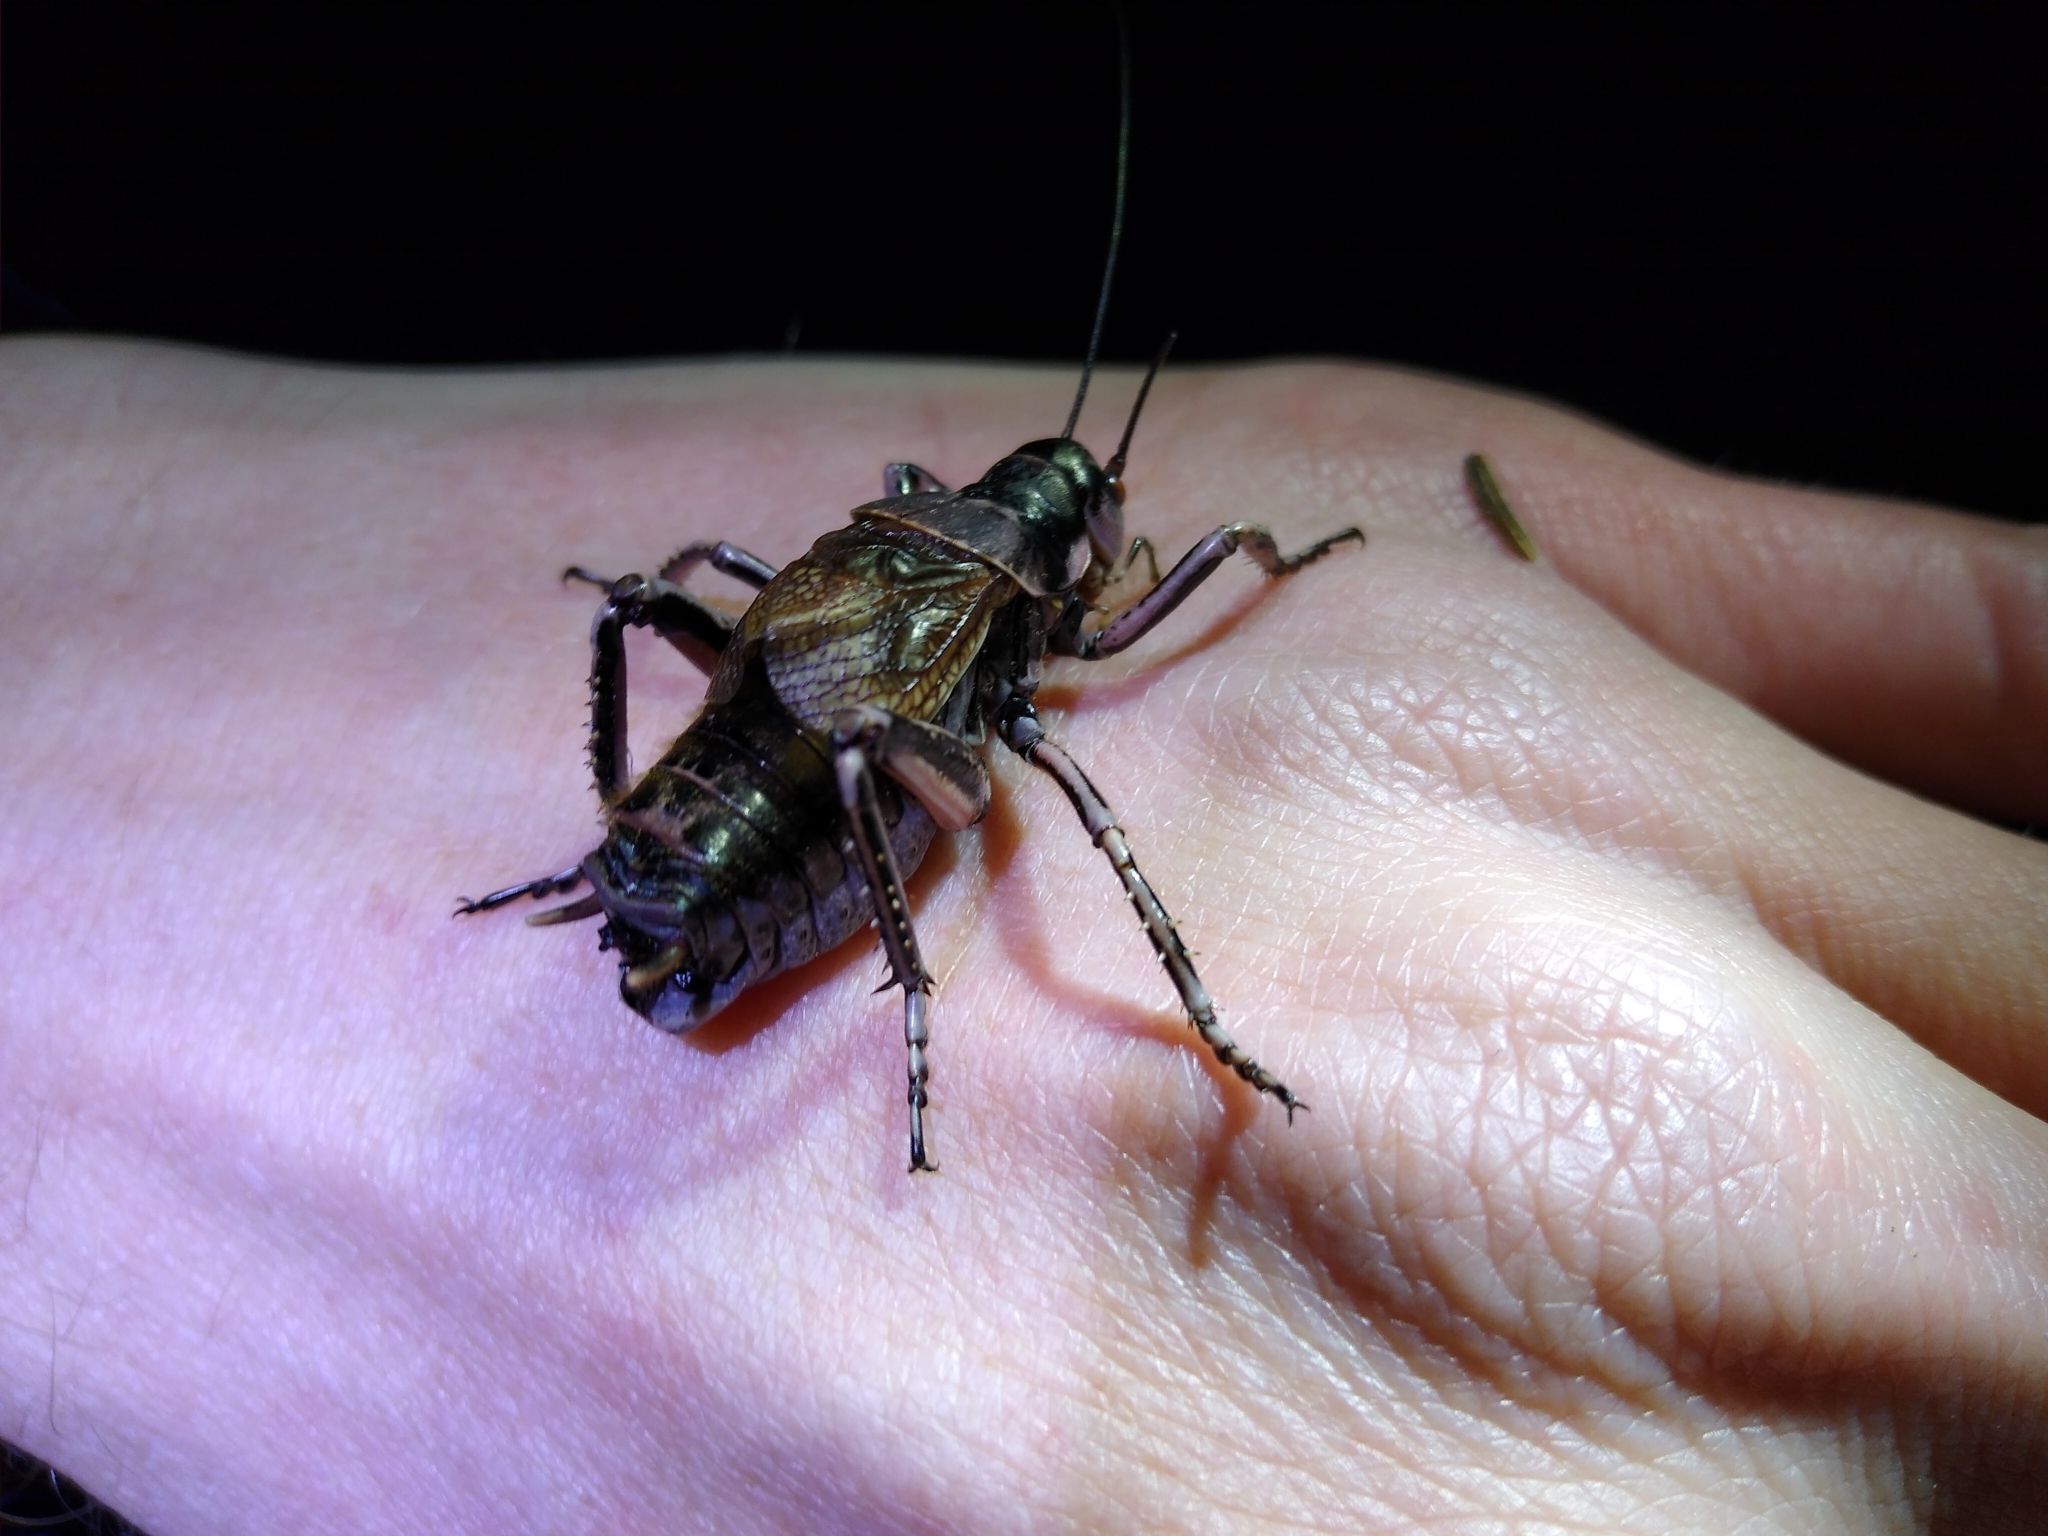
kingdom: Animalia
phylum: Arthropoda
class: Insecta
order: Orthoptera
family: Prophalangopsidae
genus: Cyphoderris
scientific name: Cyphoderris monstrosa
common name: Great grig
